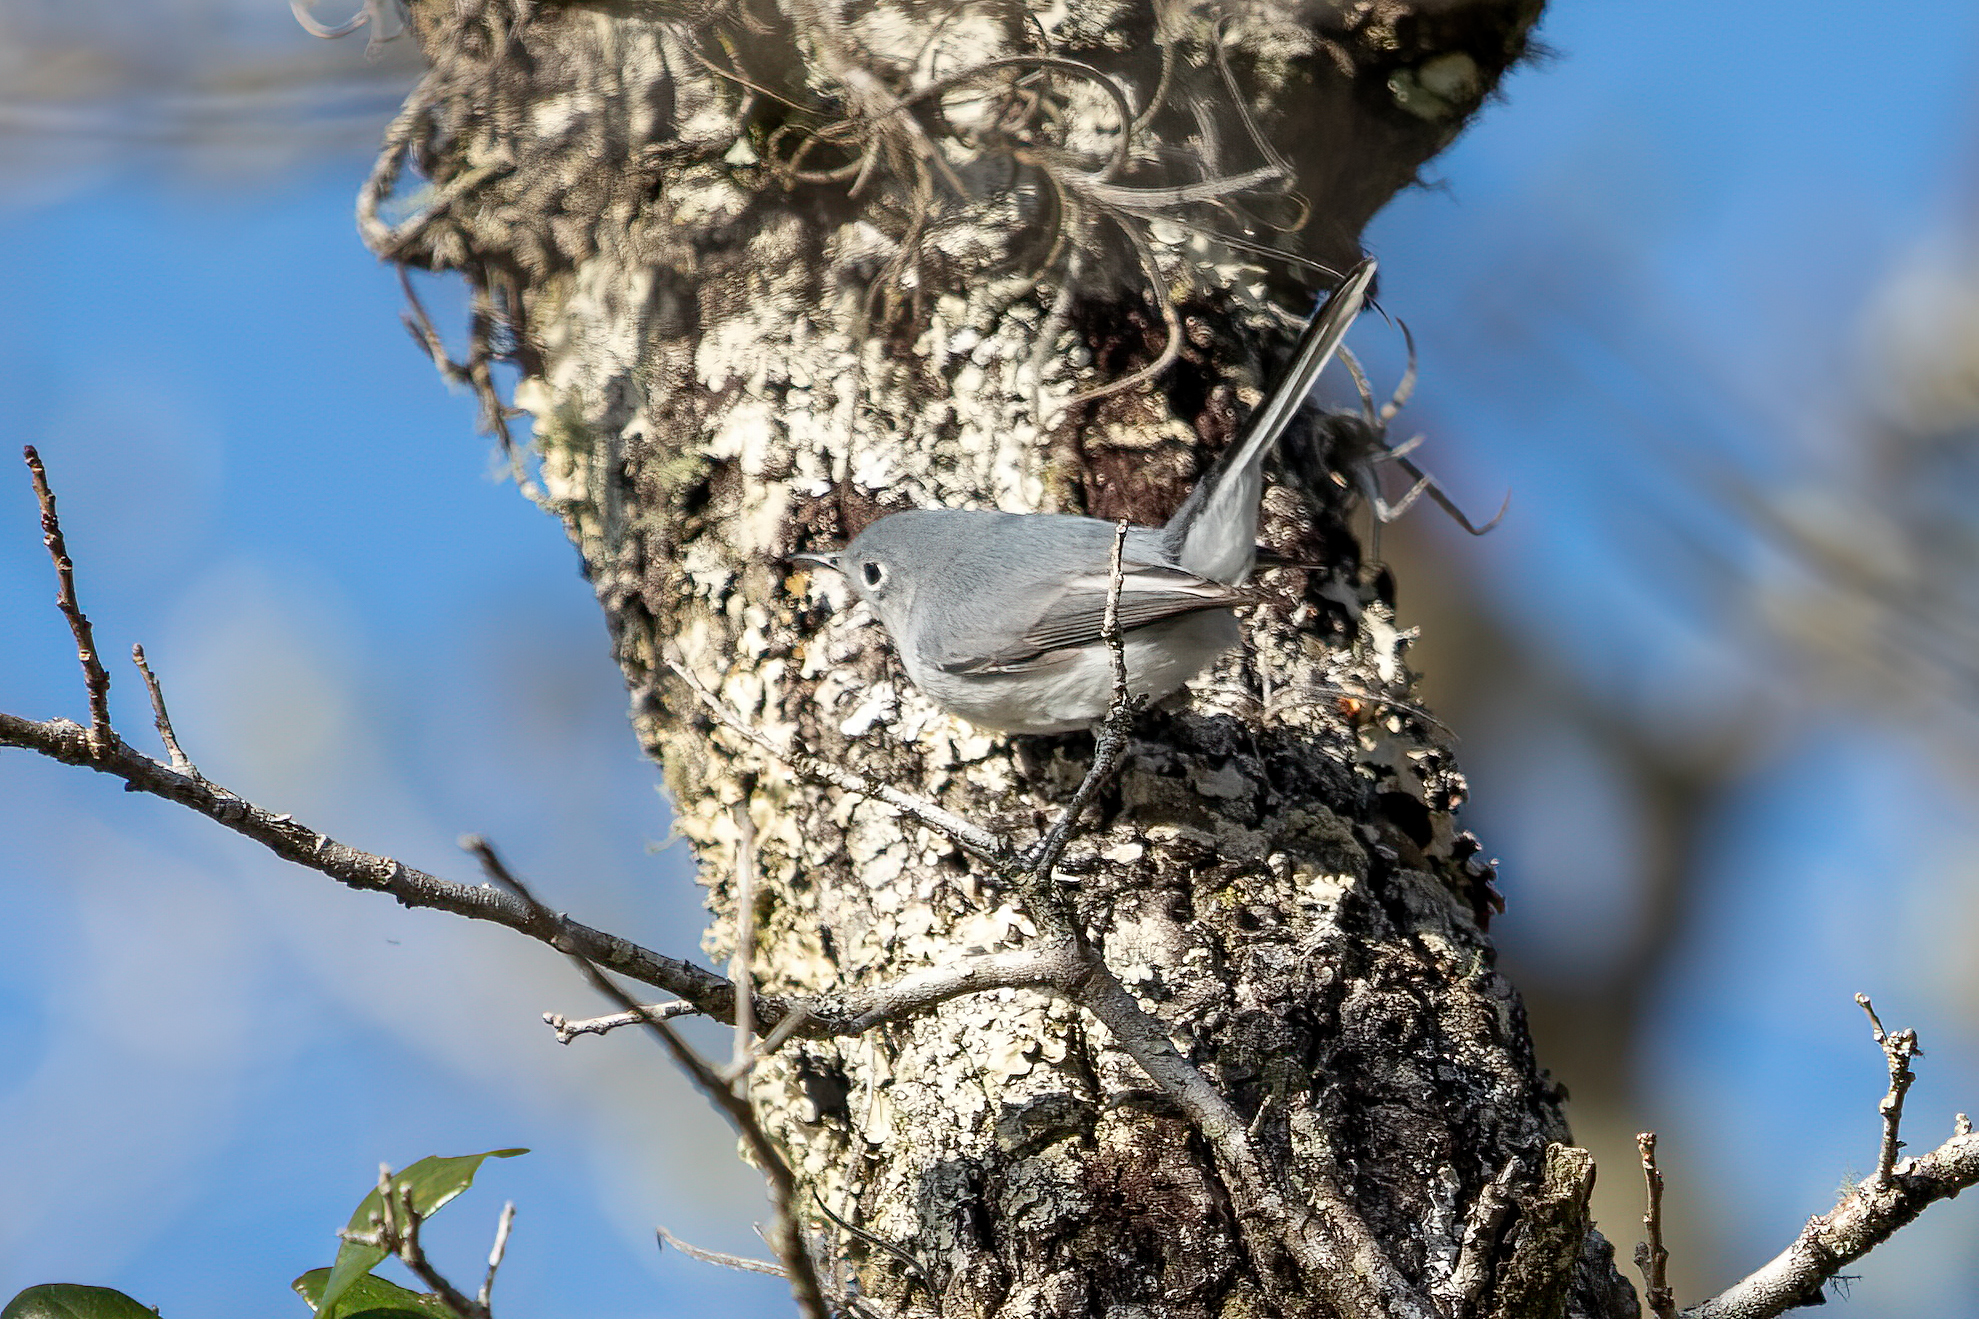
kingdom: Animalia
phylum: Chordata
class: Aves
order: Passeriformes
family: Polioptilidae
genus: Polioptila
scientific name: Polioptila caerulea
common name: Blue-gray gnatcatcher
